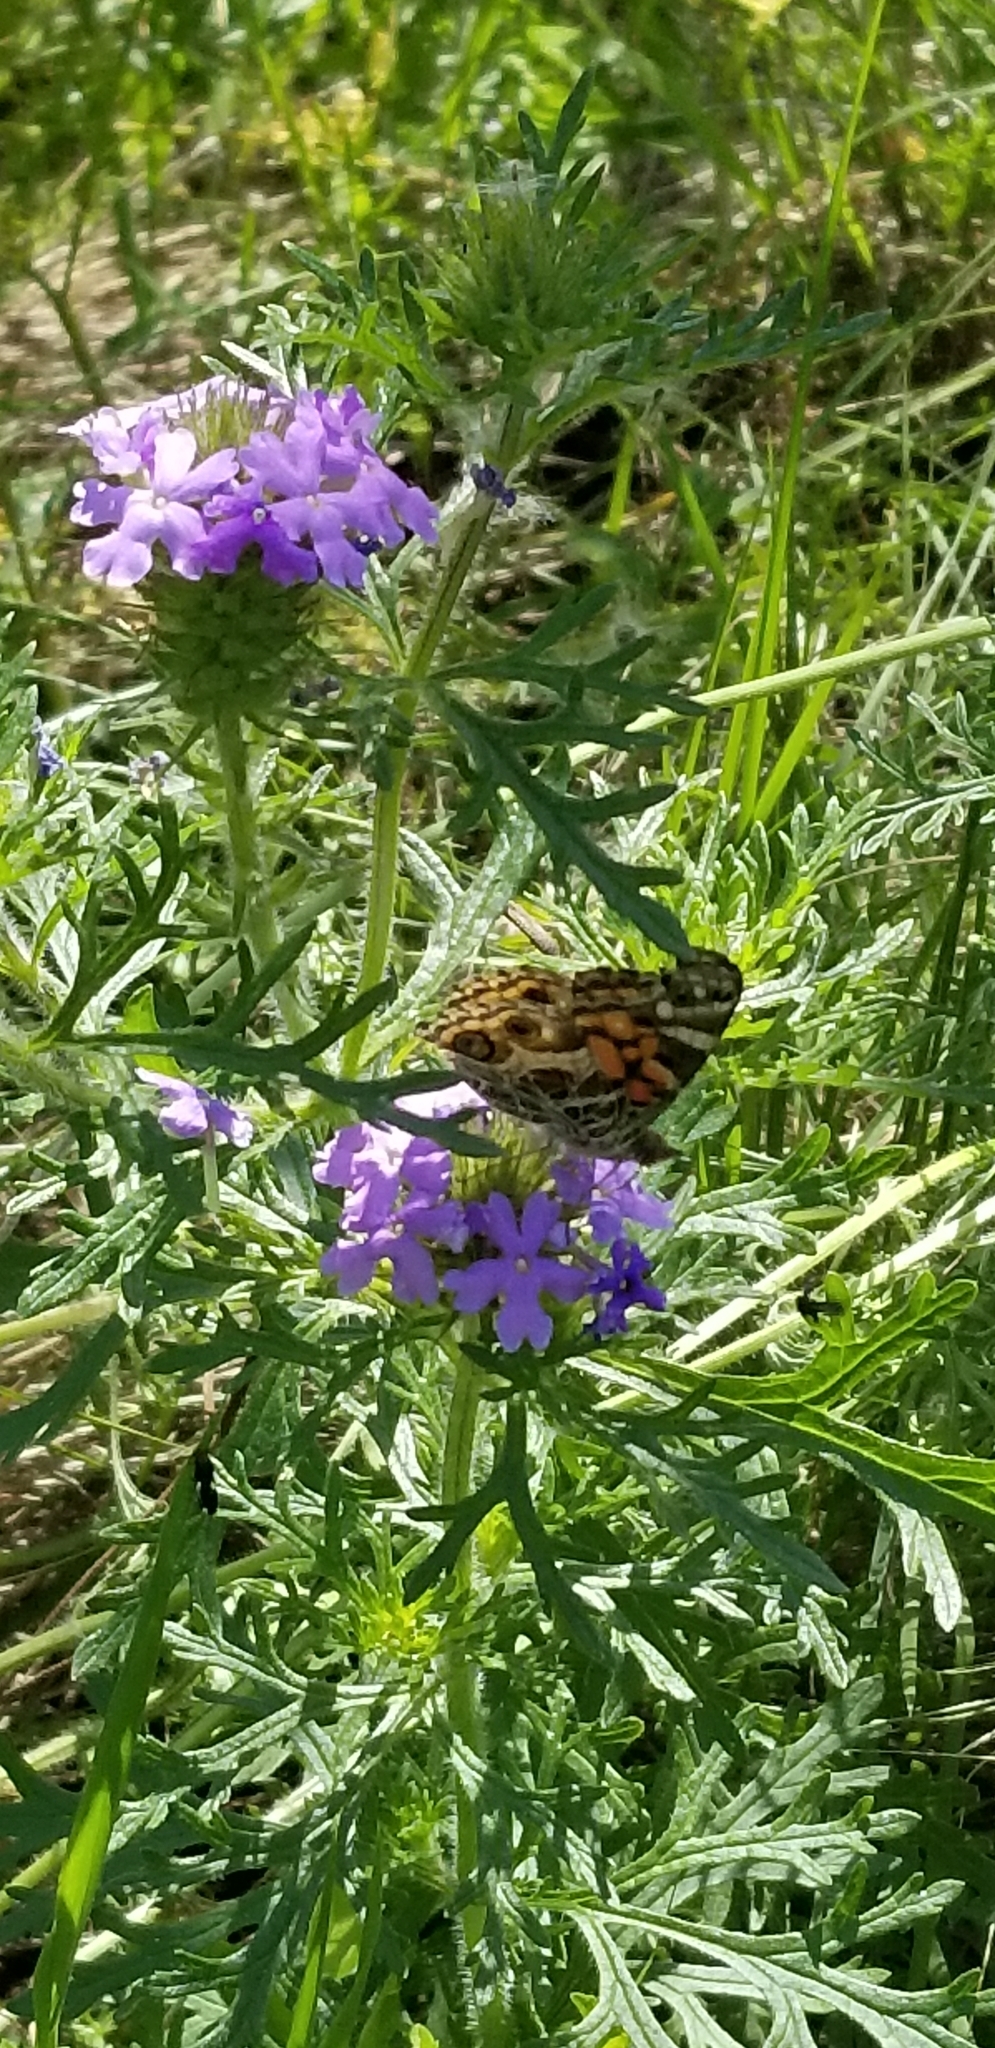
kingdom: Plantae
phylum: Tracheophyta
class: Magnoliopsida
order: Lamiales
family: Verbenaceae
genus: Verbena
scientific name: Verbena bipinnatifida
